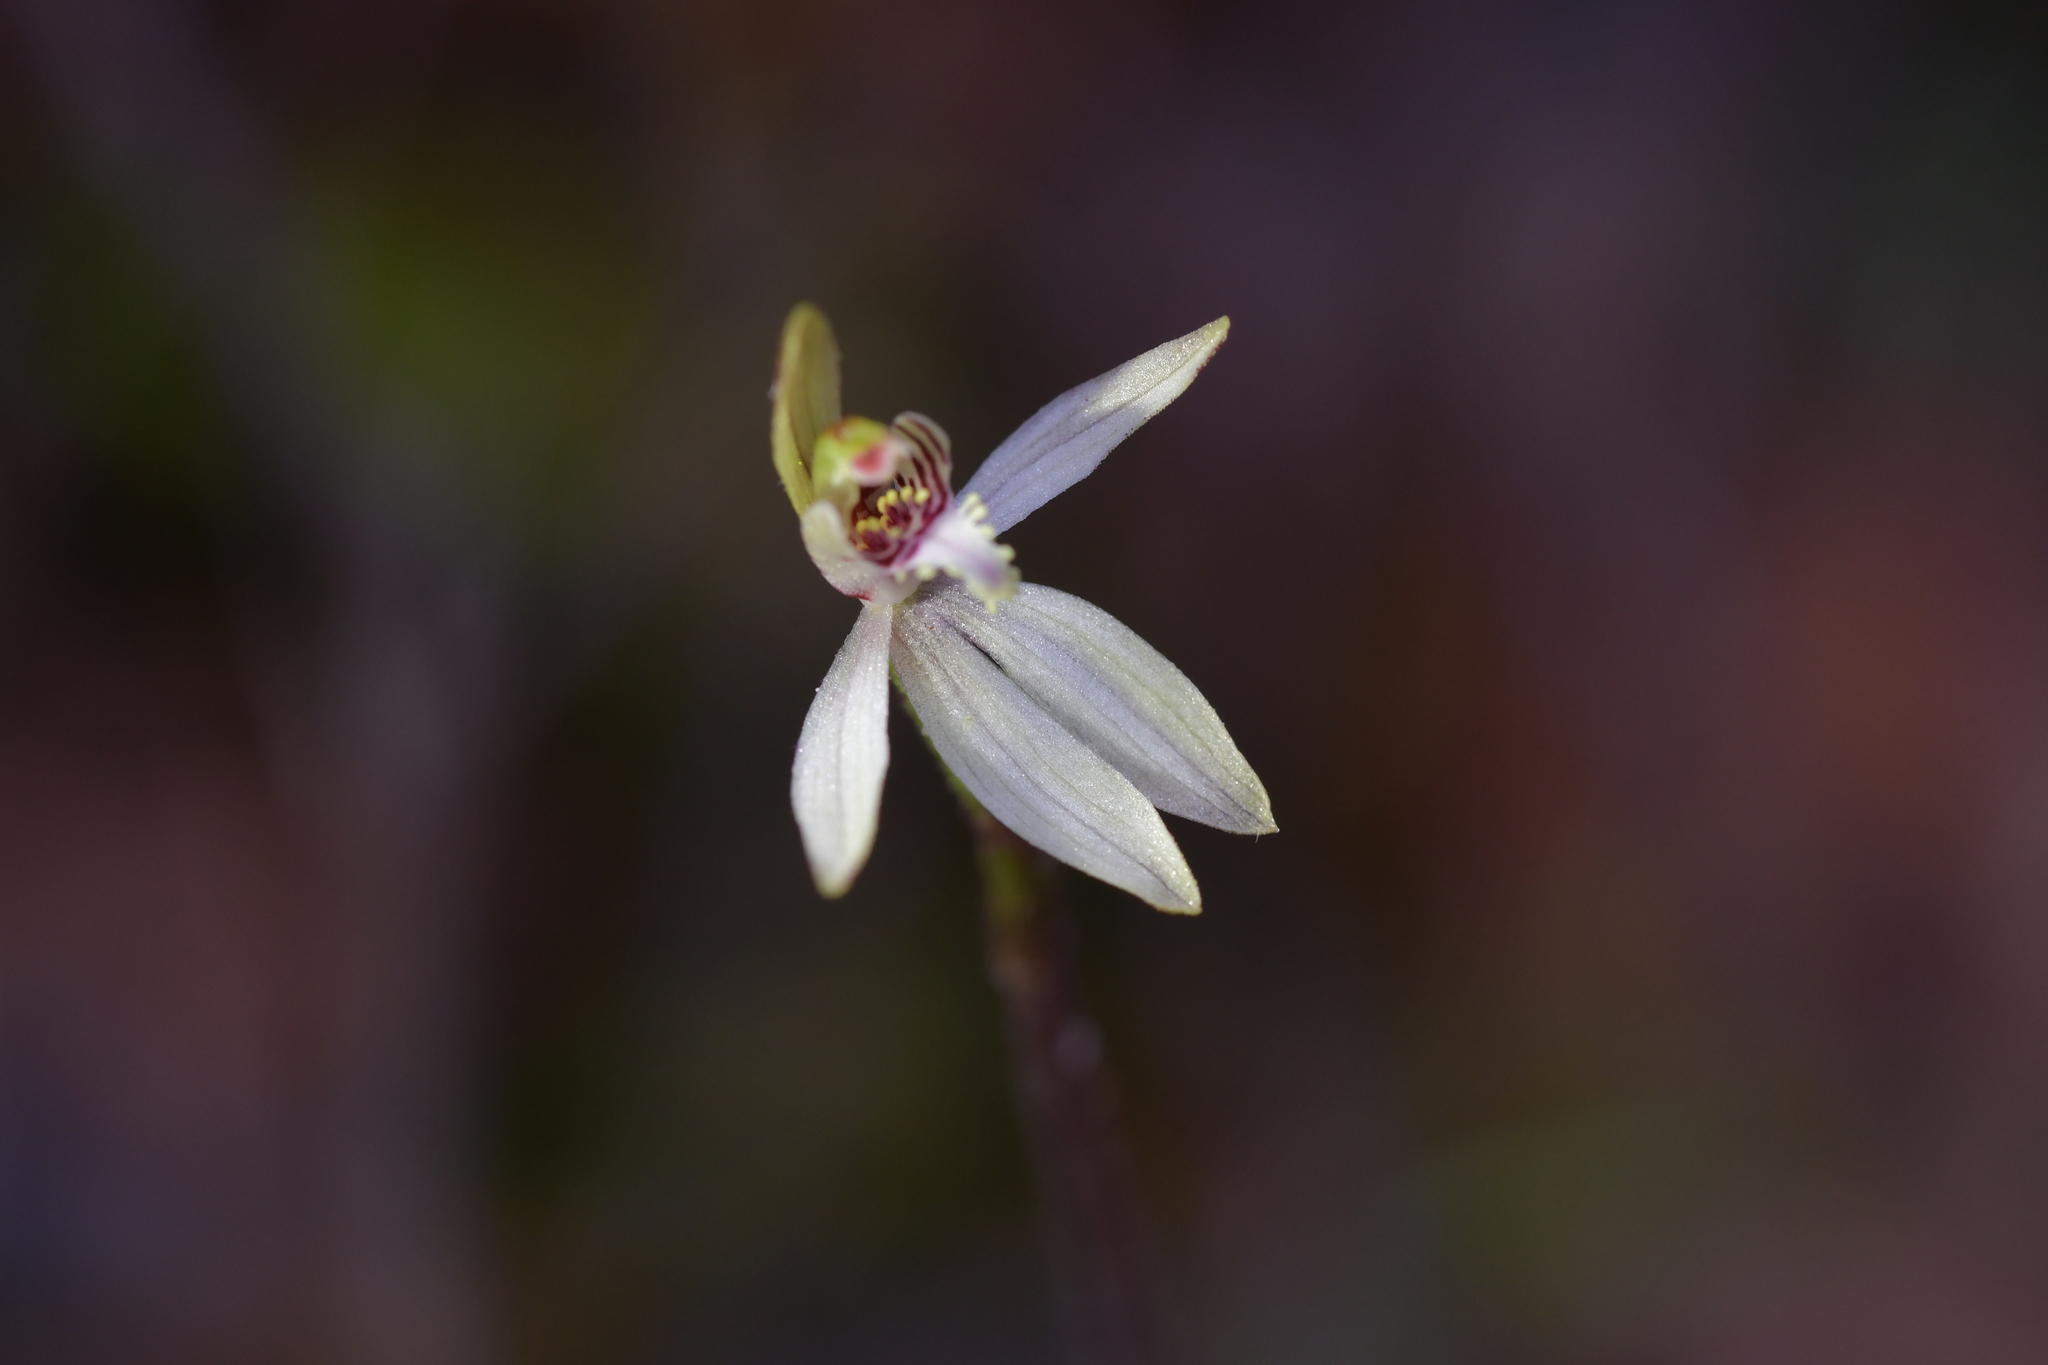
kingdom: Plantae
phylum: Tracheophyta
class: Liliopsida
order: Asparagales
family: Orchidaceae
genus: Caladenia
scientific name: Caladenia chlorostyla
